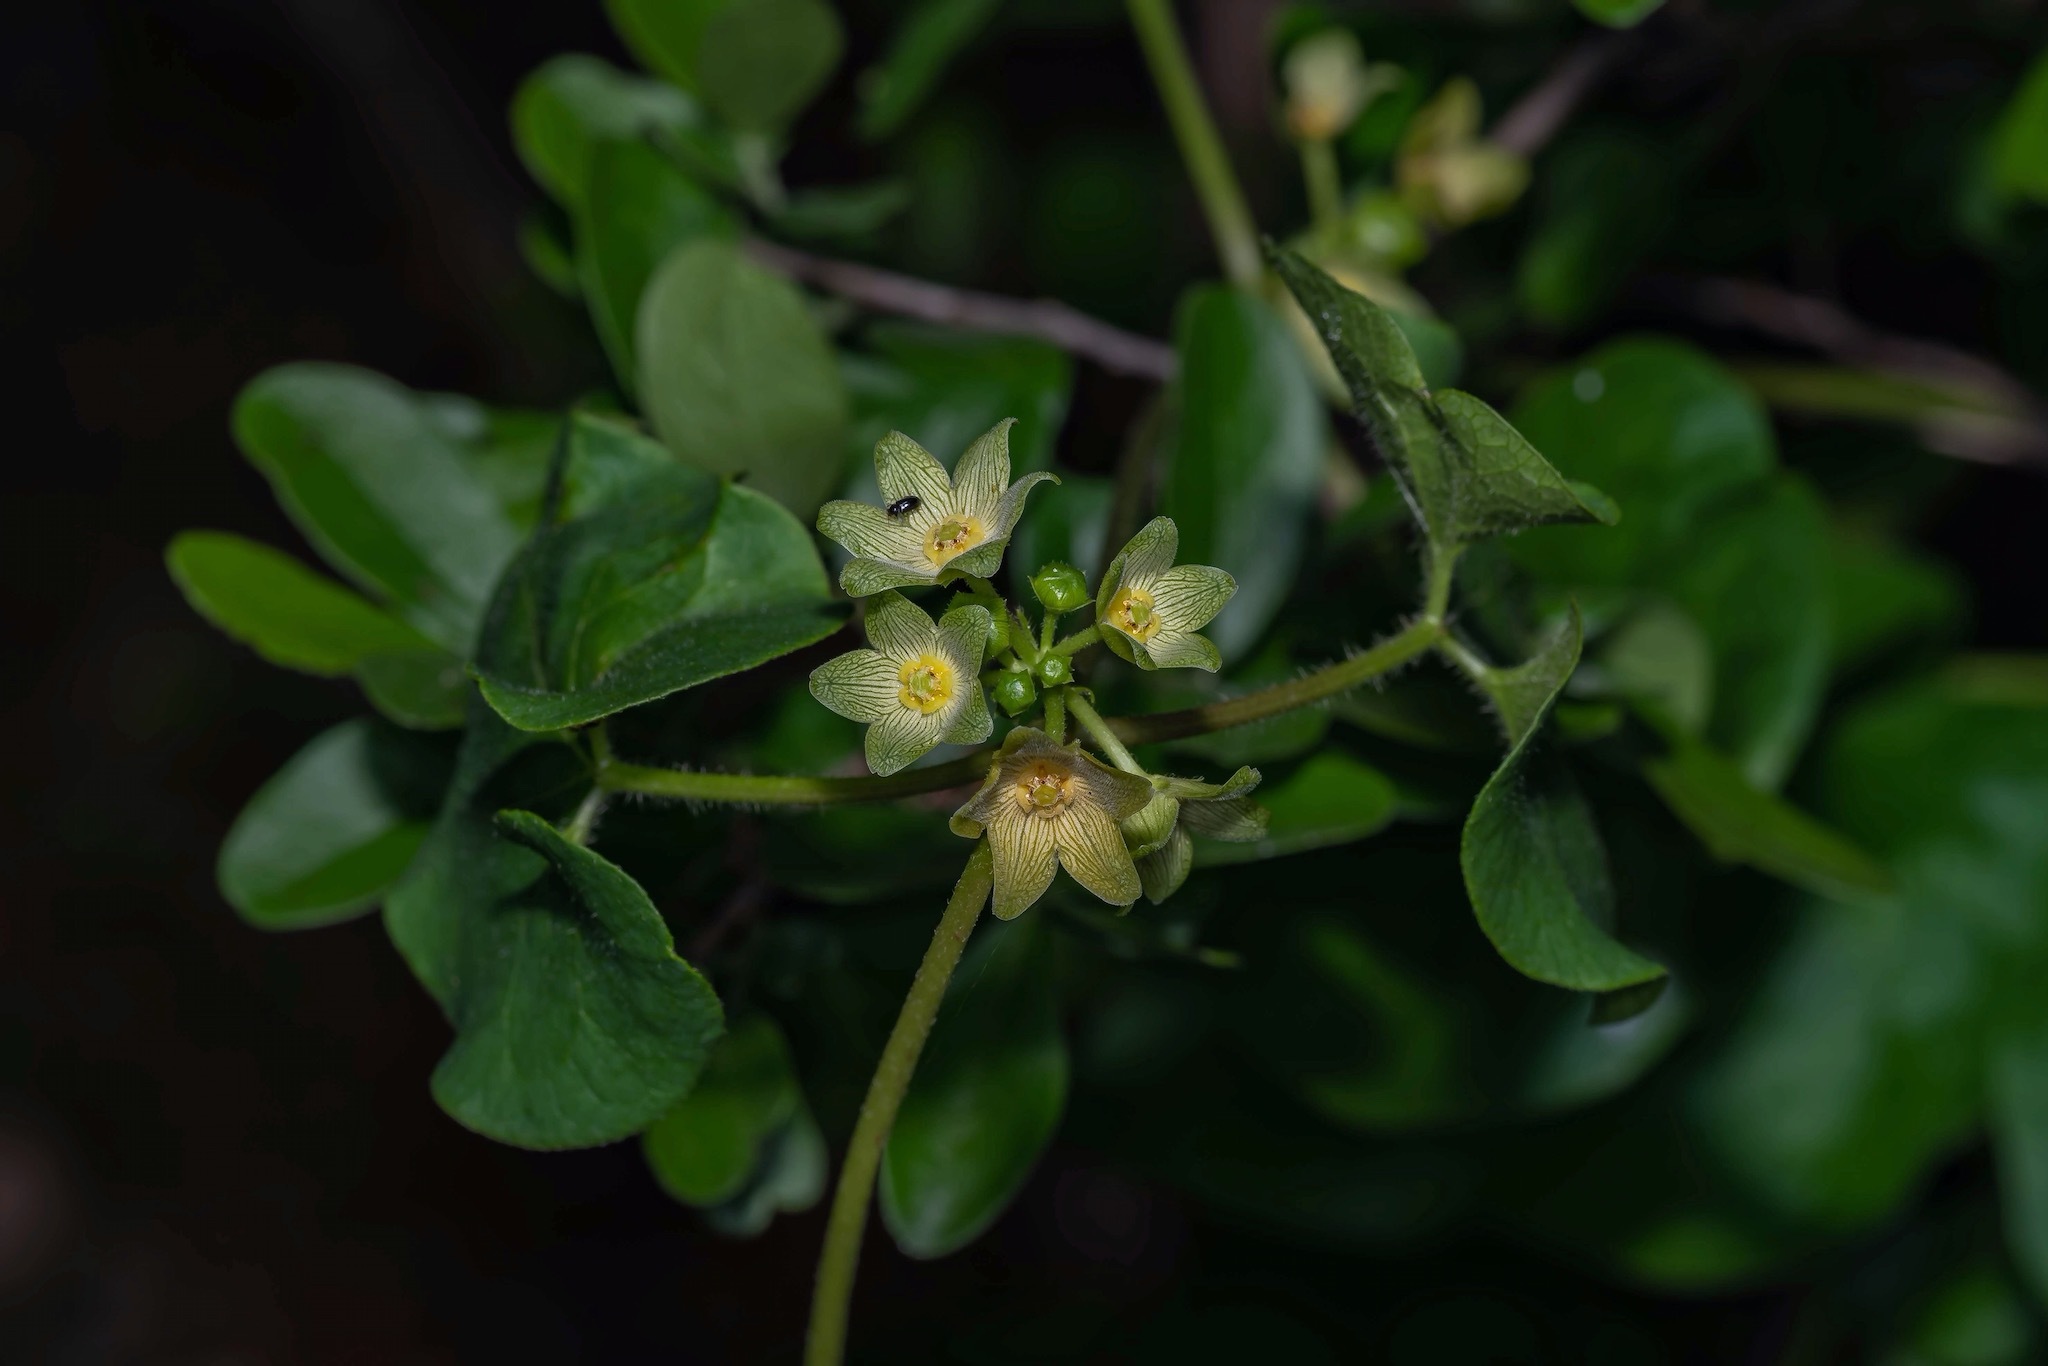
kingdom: Plantae
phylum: Tracheophyta
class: Magnoliopsida
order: Gentianales
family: Apocynaceae
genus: Matelea
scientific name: Matelea edwardsensis
